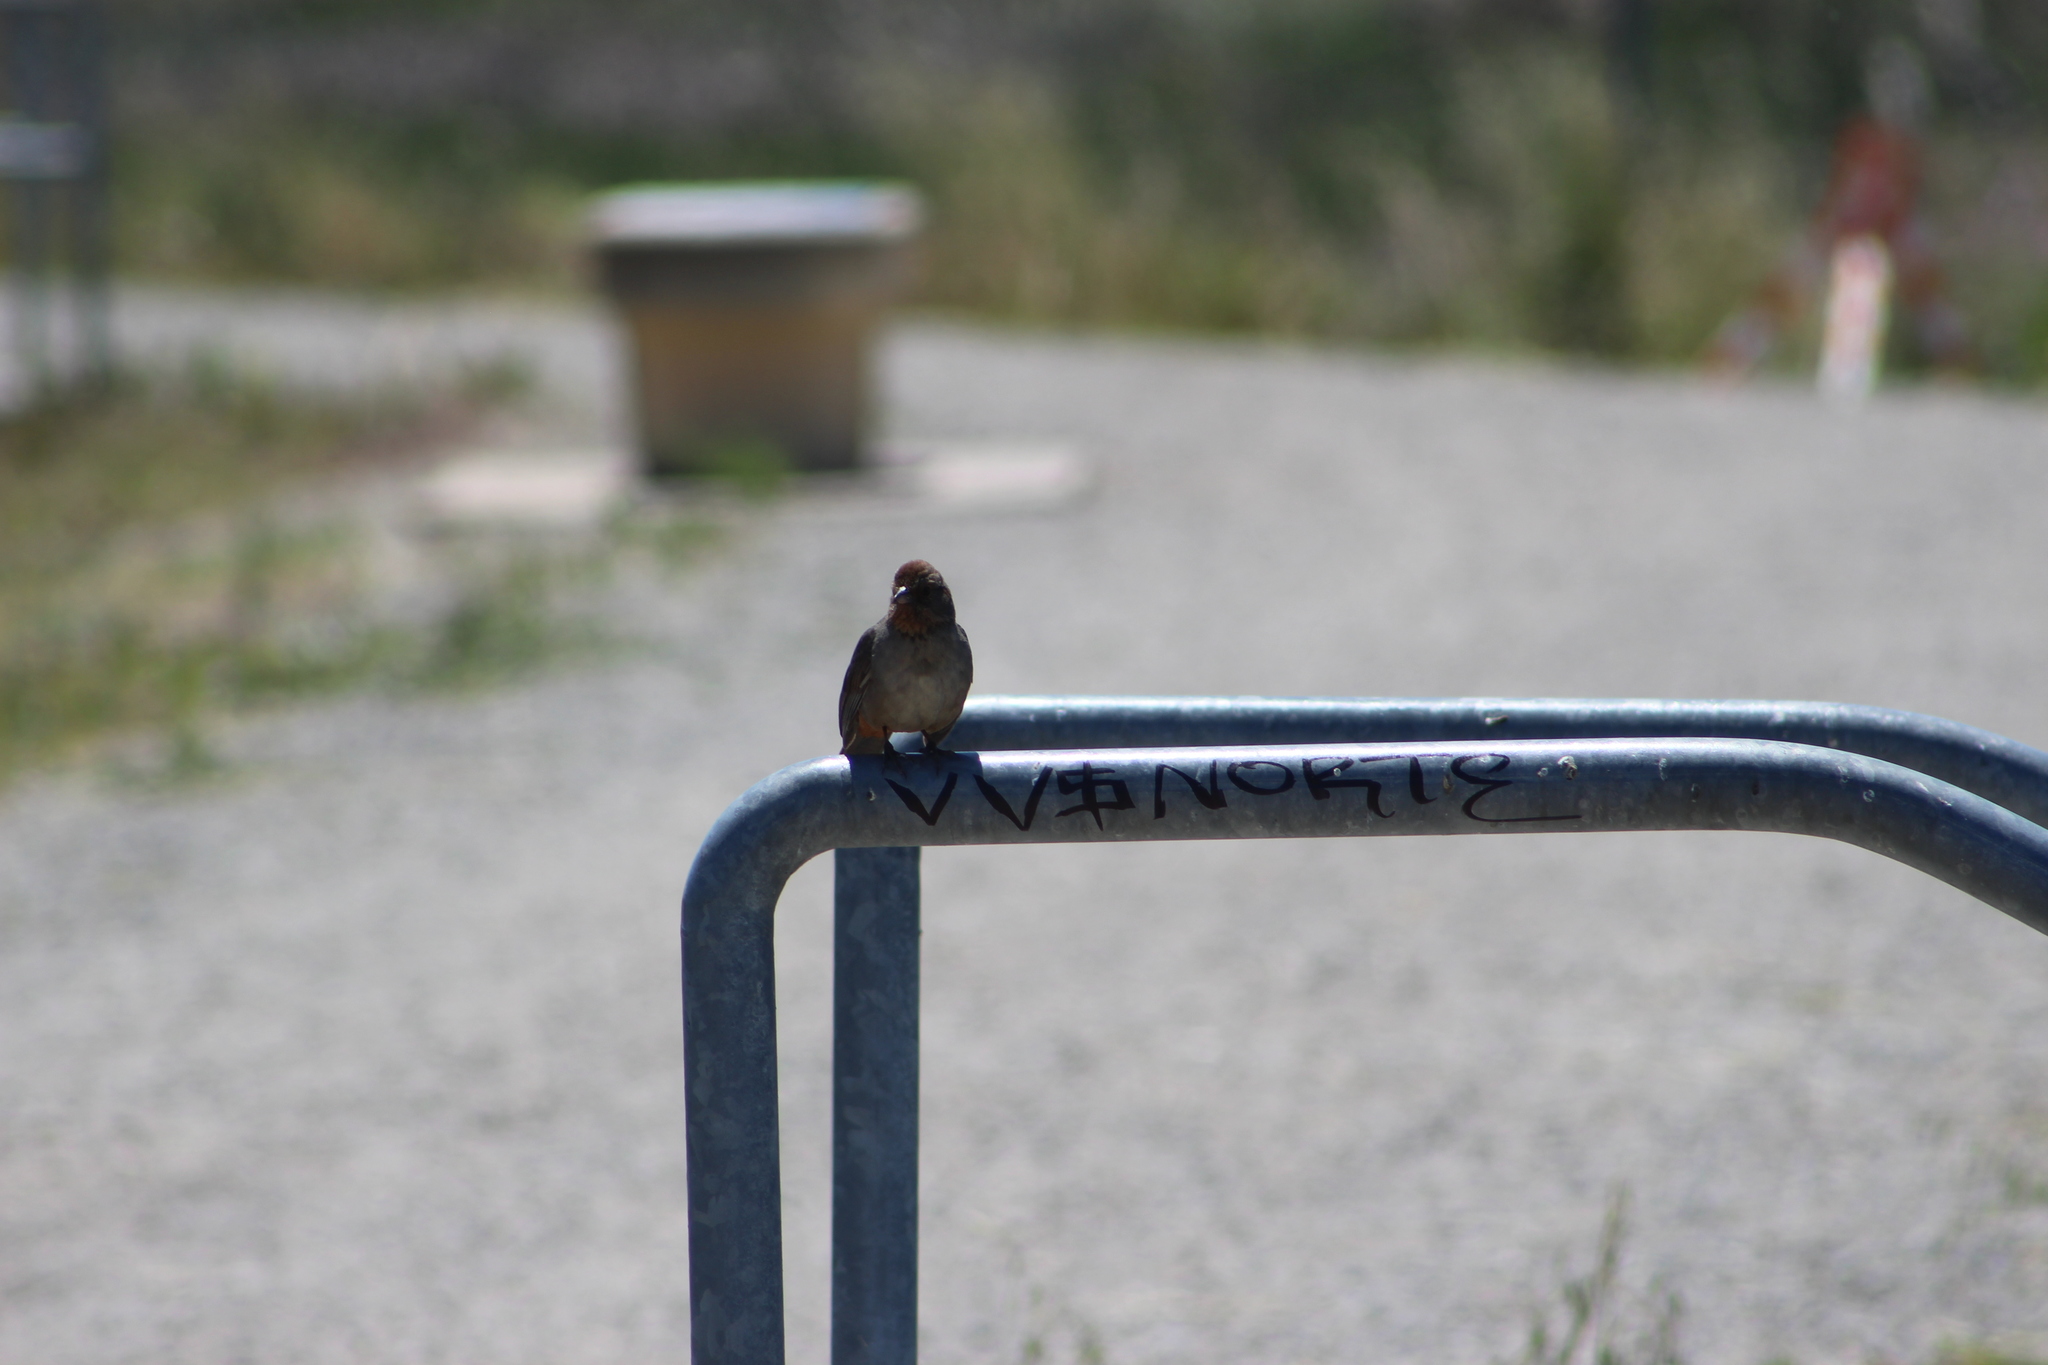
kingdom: Animalia
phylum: Chordata
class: Aves
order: Passeriformes
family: Passerellidae
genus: Melozone
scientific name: Melozone crissalis
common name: California towhee
